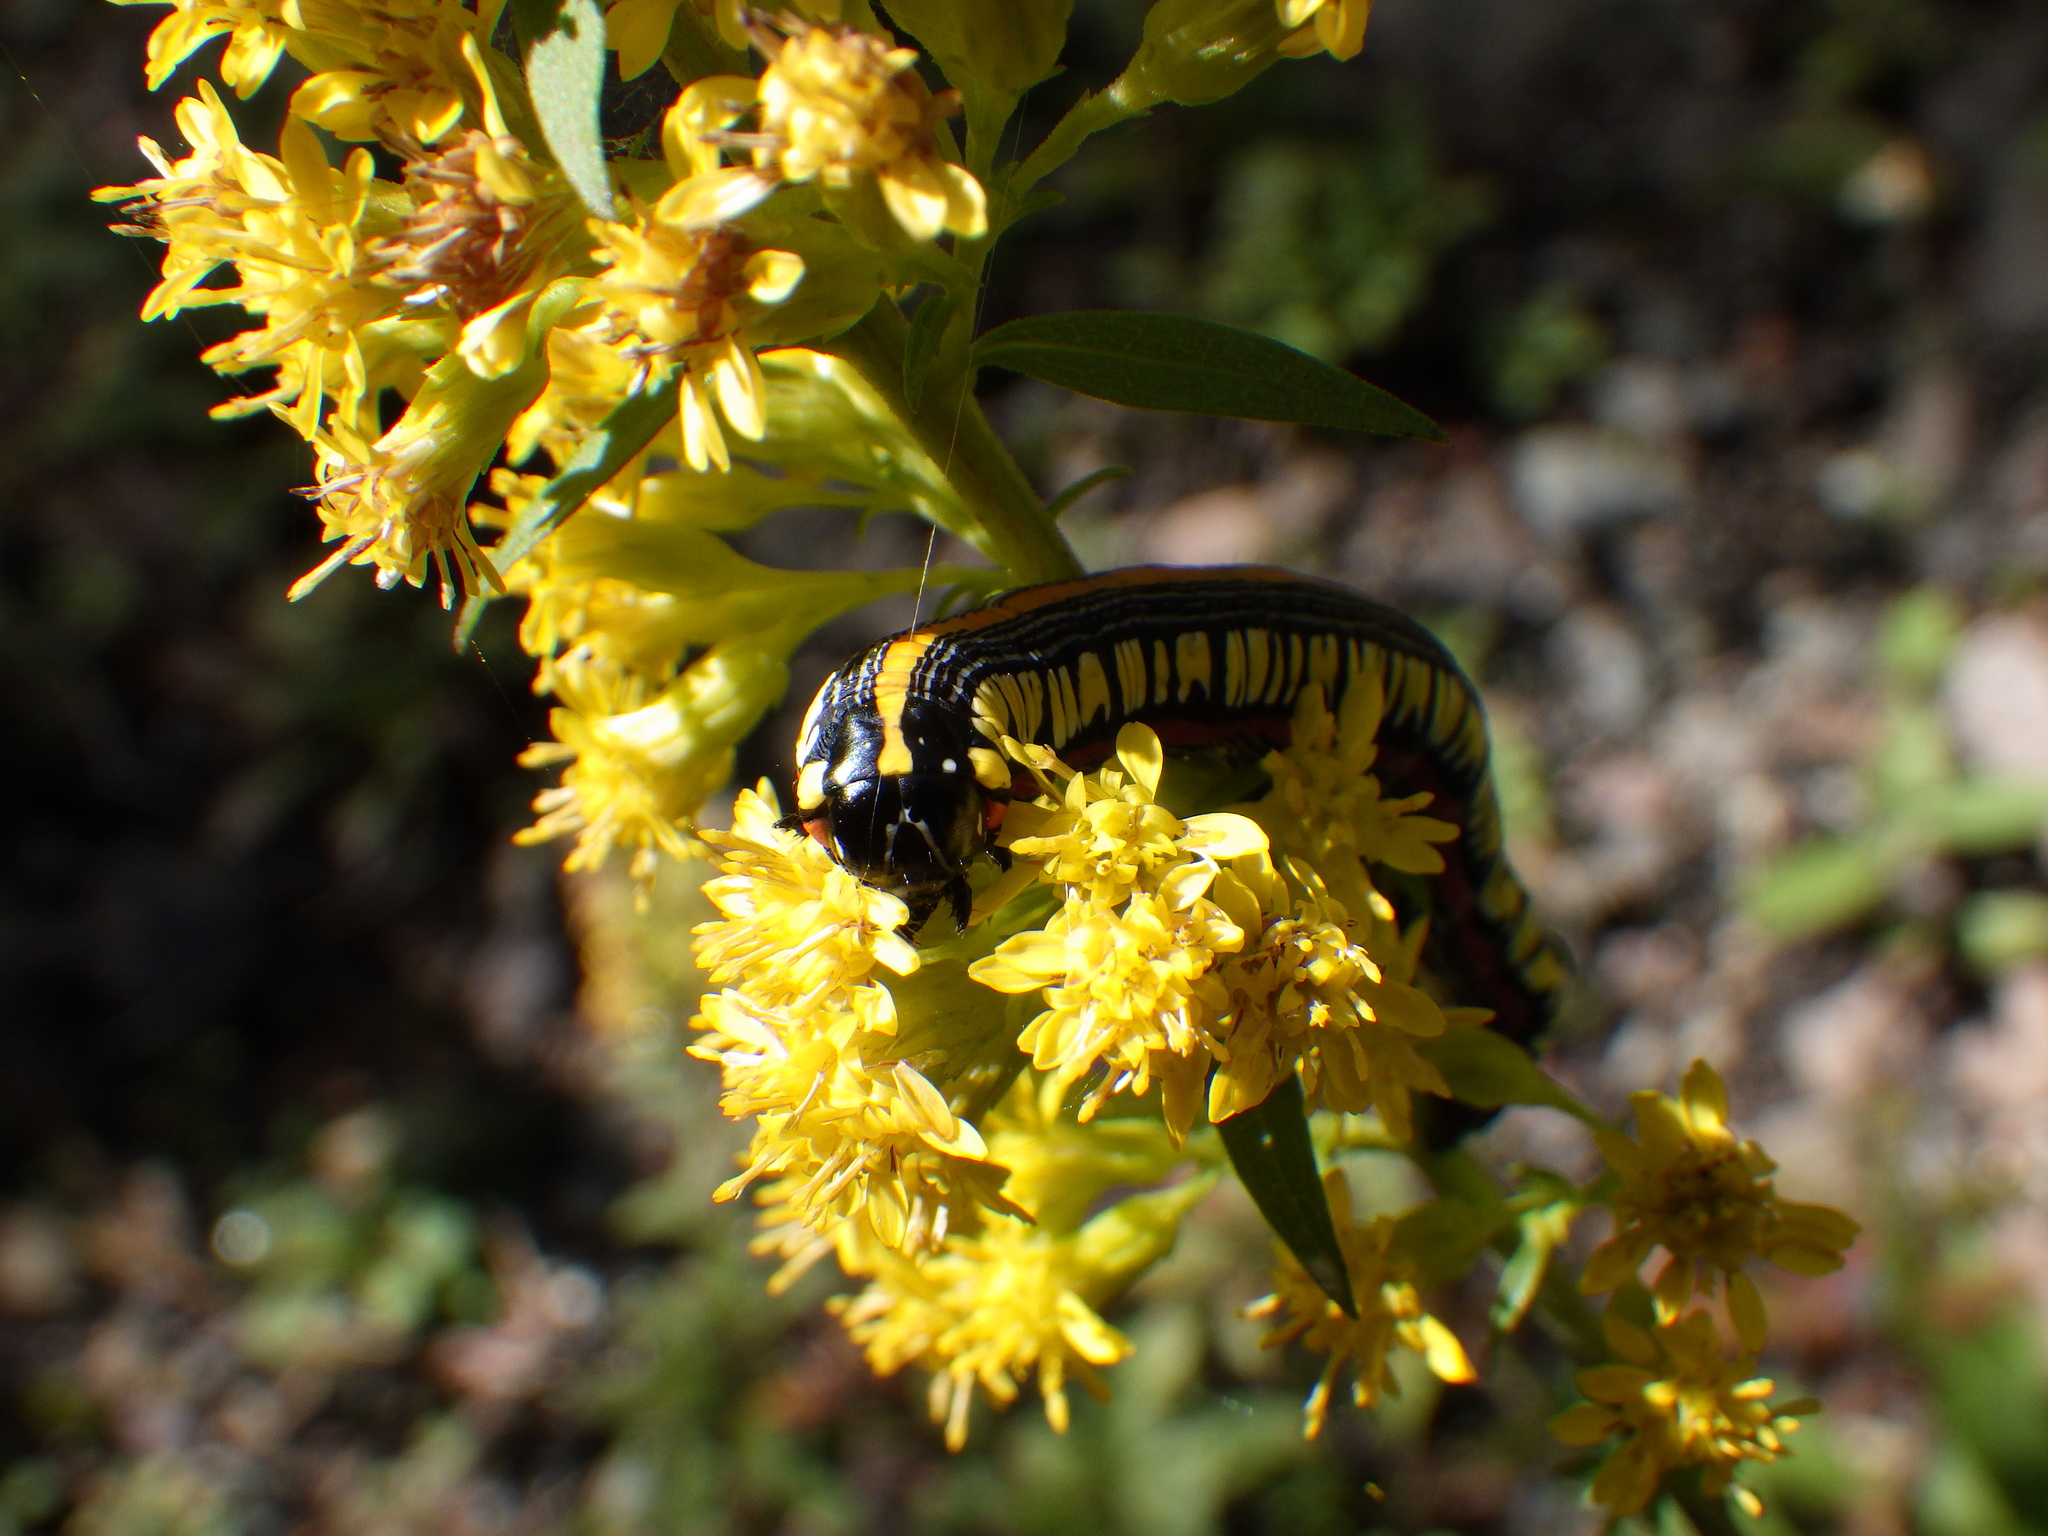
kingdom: Animalia
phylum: Arthropoda
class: Insecta
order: Lepidoptera
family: Noctuidae
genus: Cucullia
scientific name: Cucullia convexipennis
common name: Brown-hooded owlet
